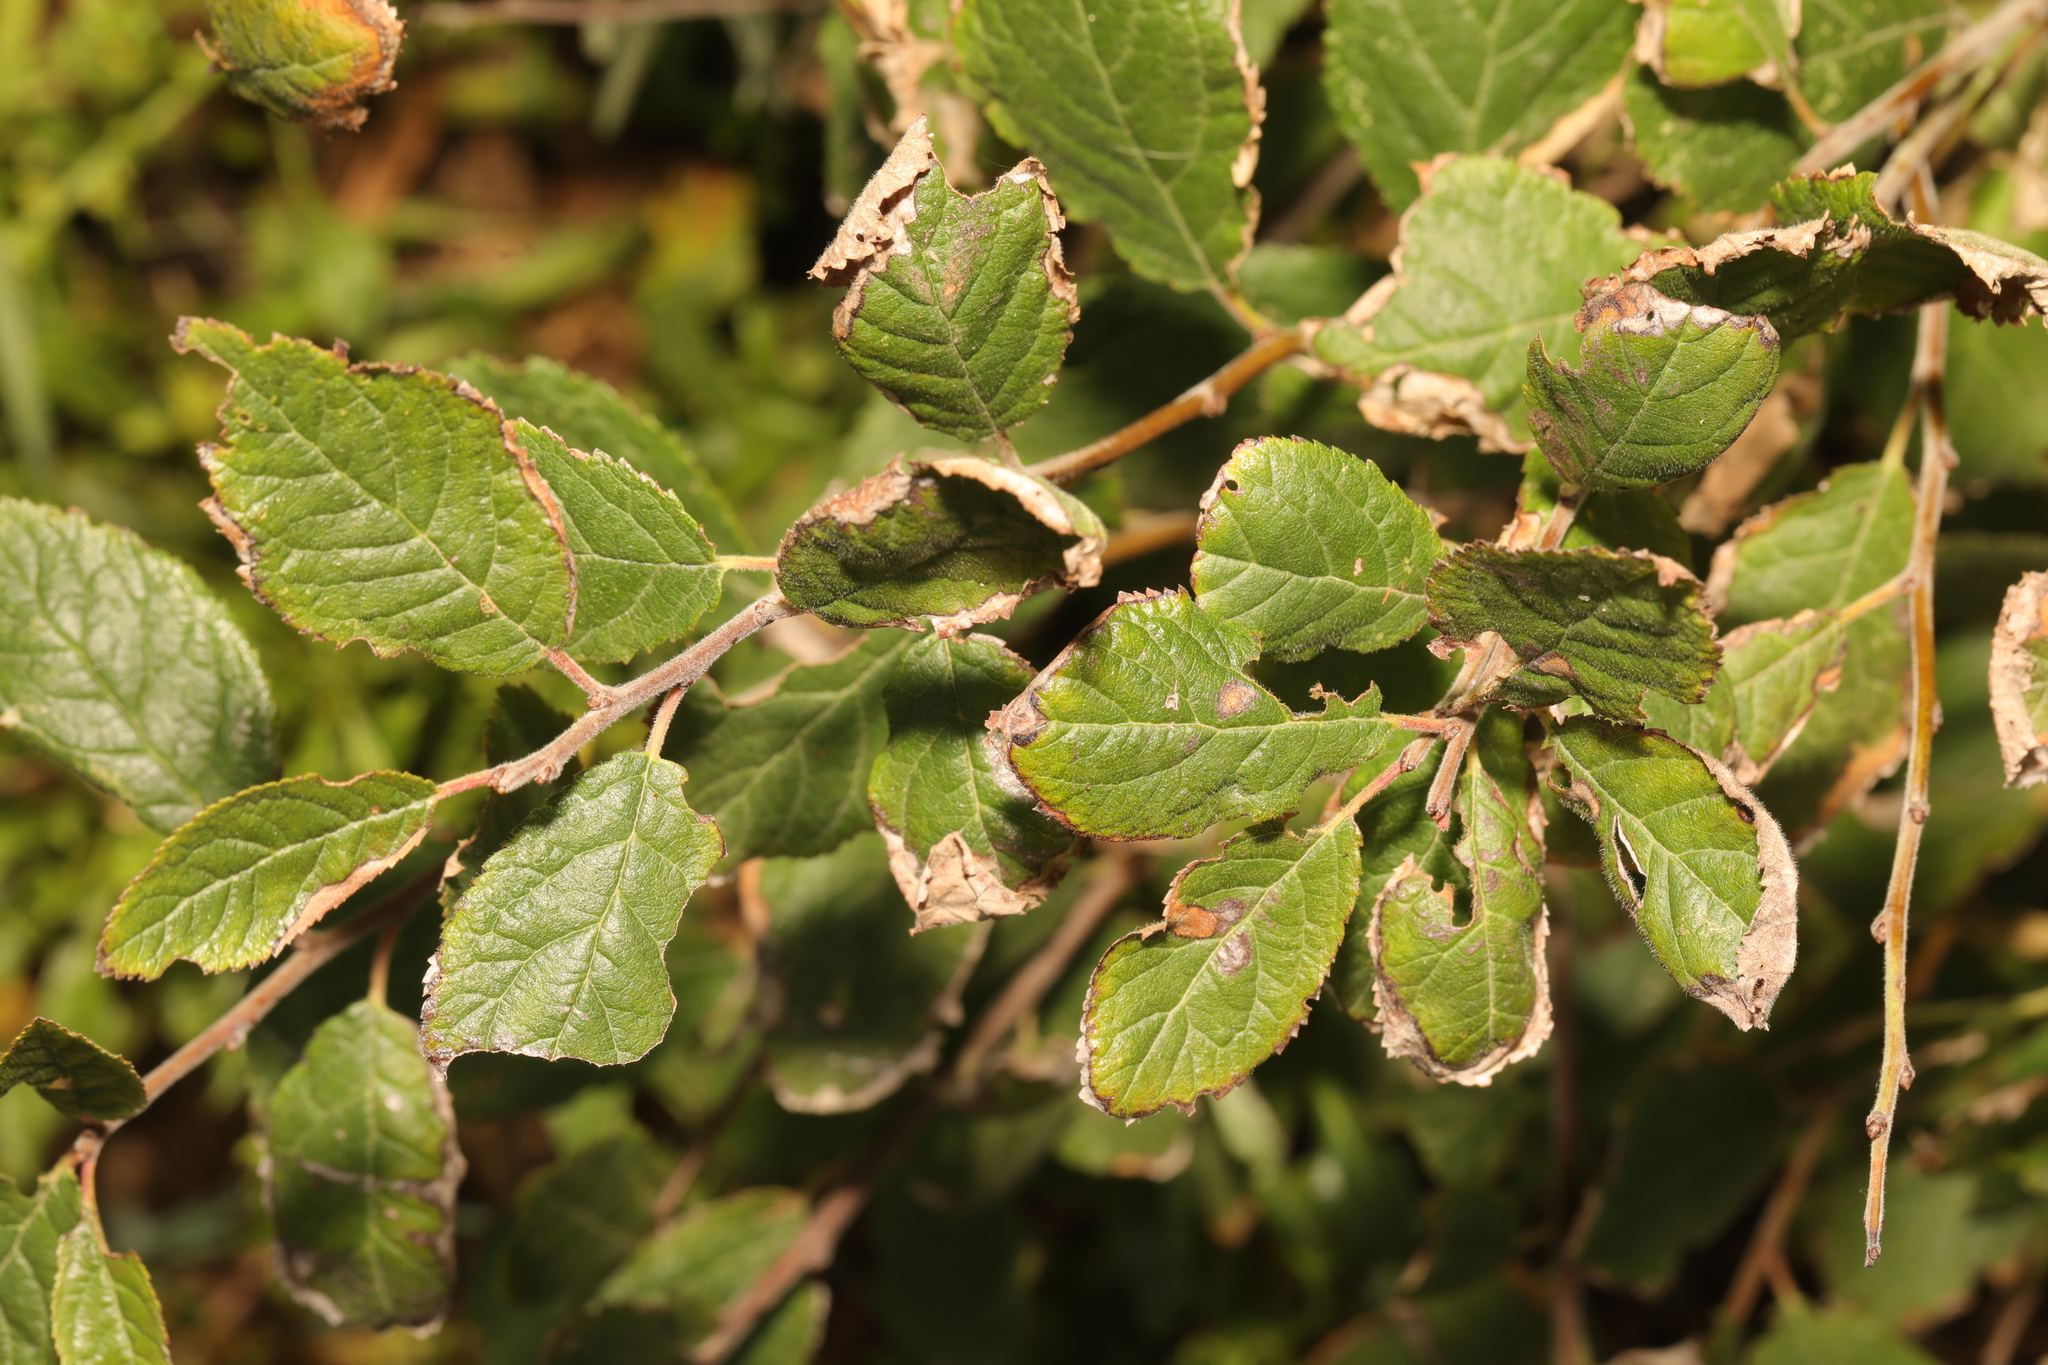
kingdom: Plantae
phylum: Tracheophyta
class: Magnoliopsida
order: Rosales
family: Rosaceae
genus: Prunus
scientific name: Prunus spinosa
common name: Blackthorn
